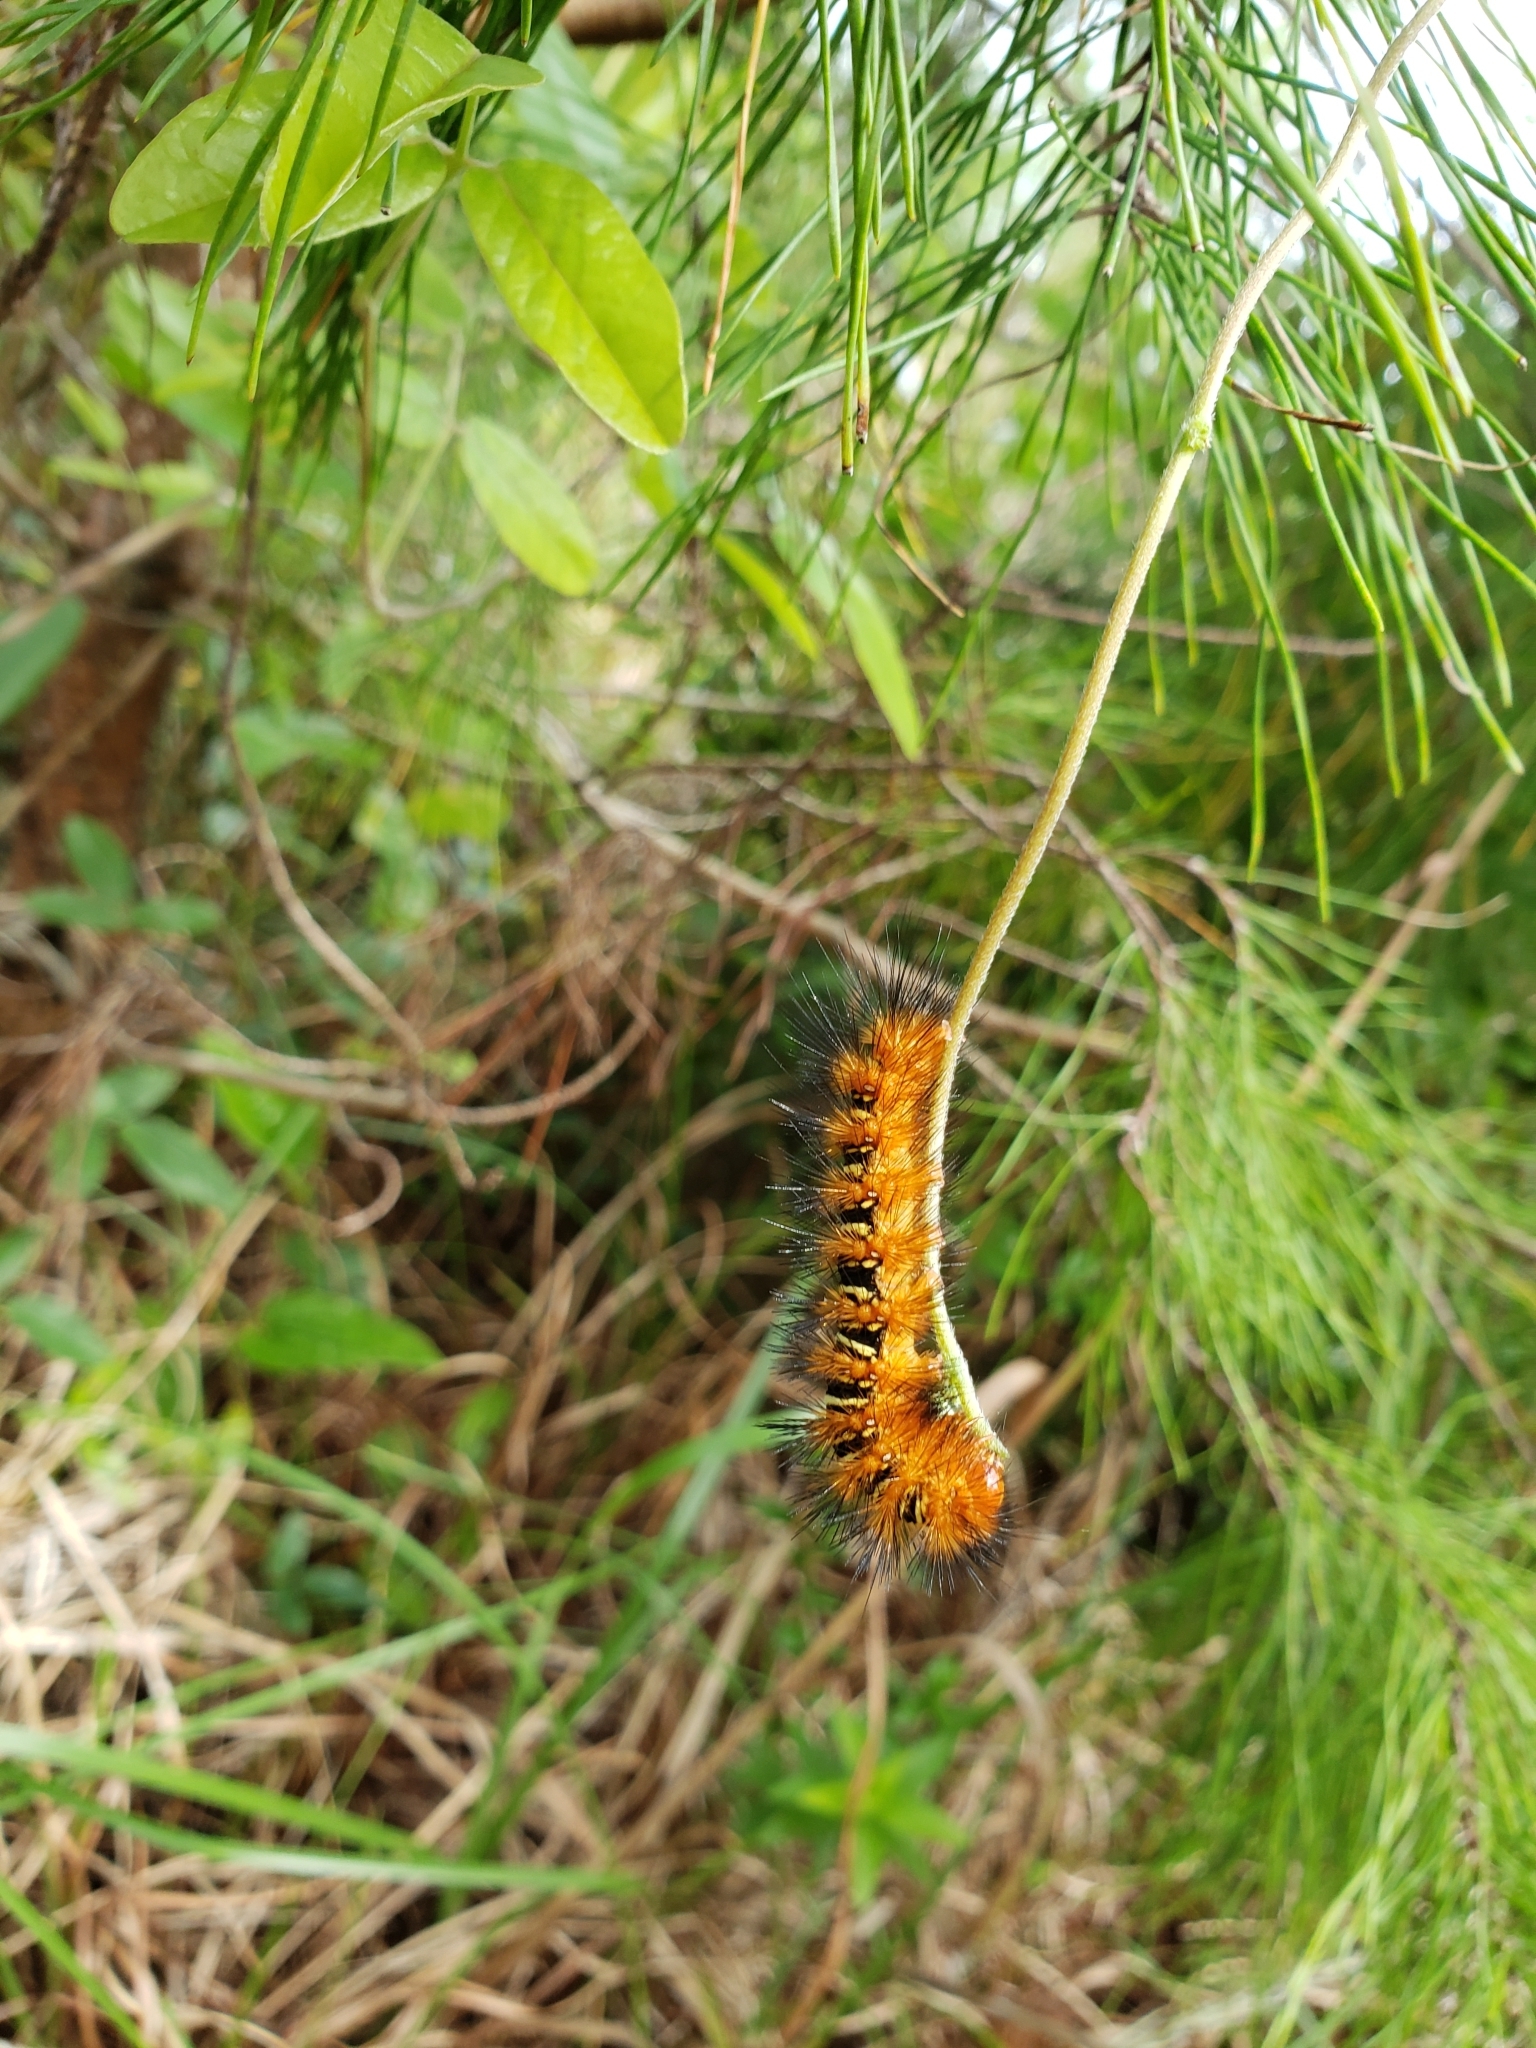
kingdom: Animalia
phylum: Arthropoda
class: Insecta
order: Lepidoptera
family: Erebidae
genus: Seirarctia
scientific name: Seirarctia echo
